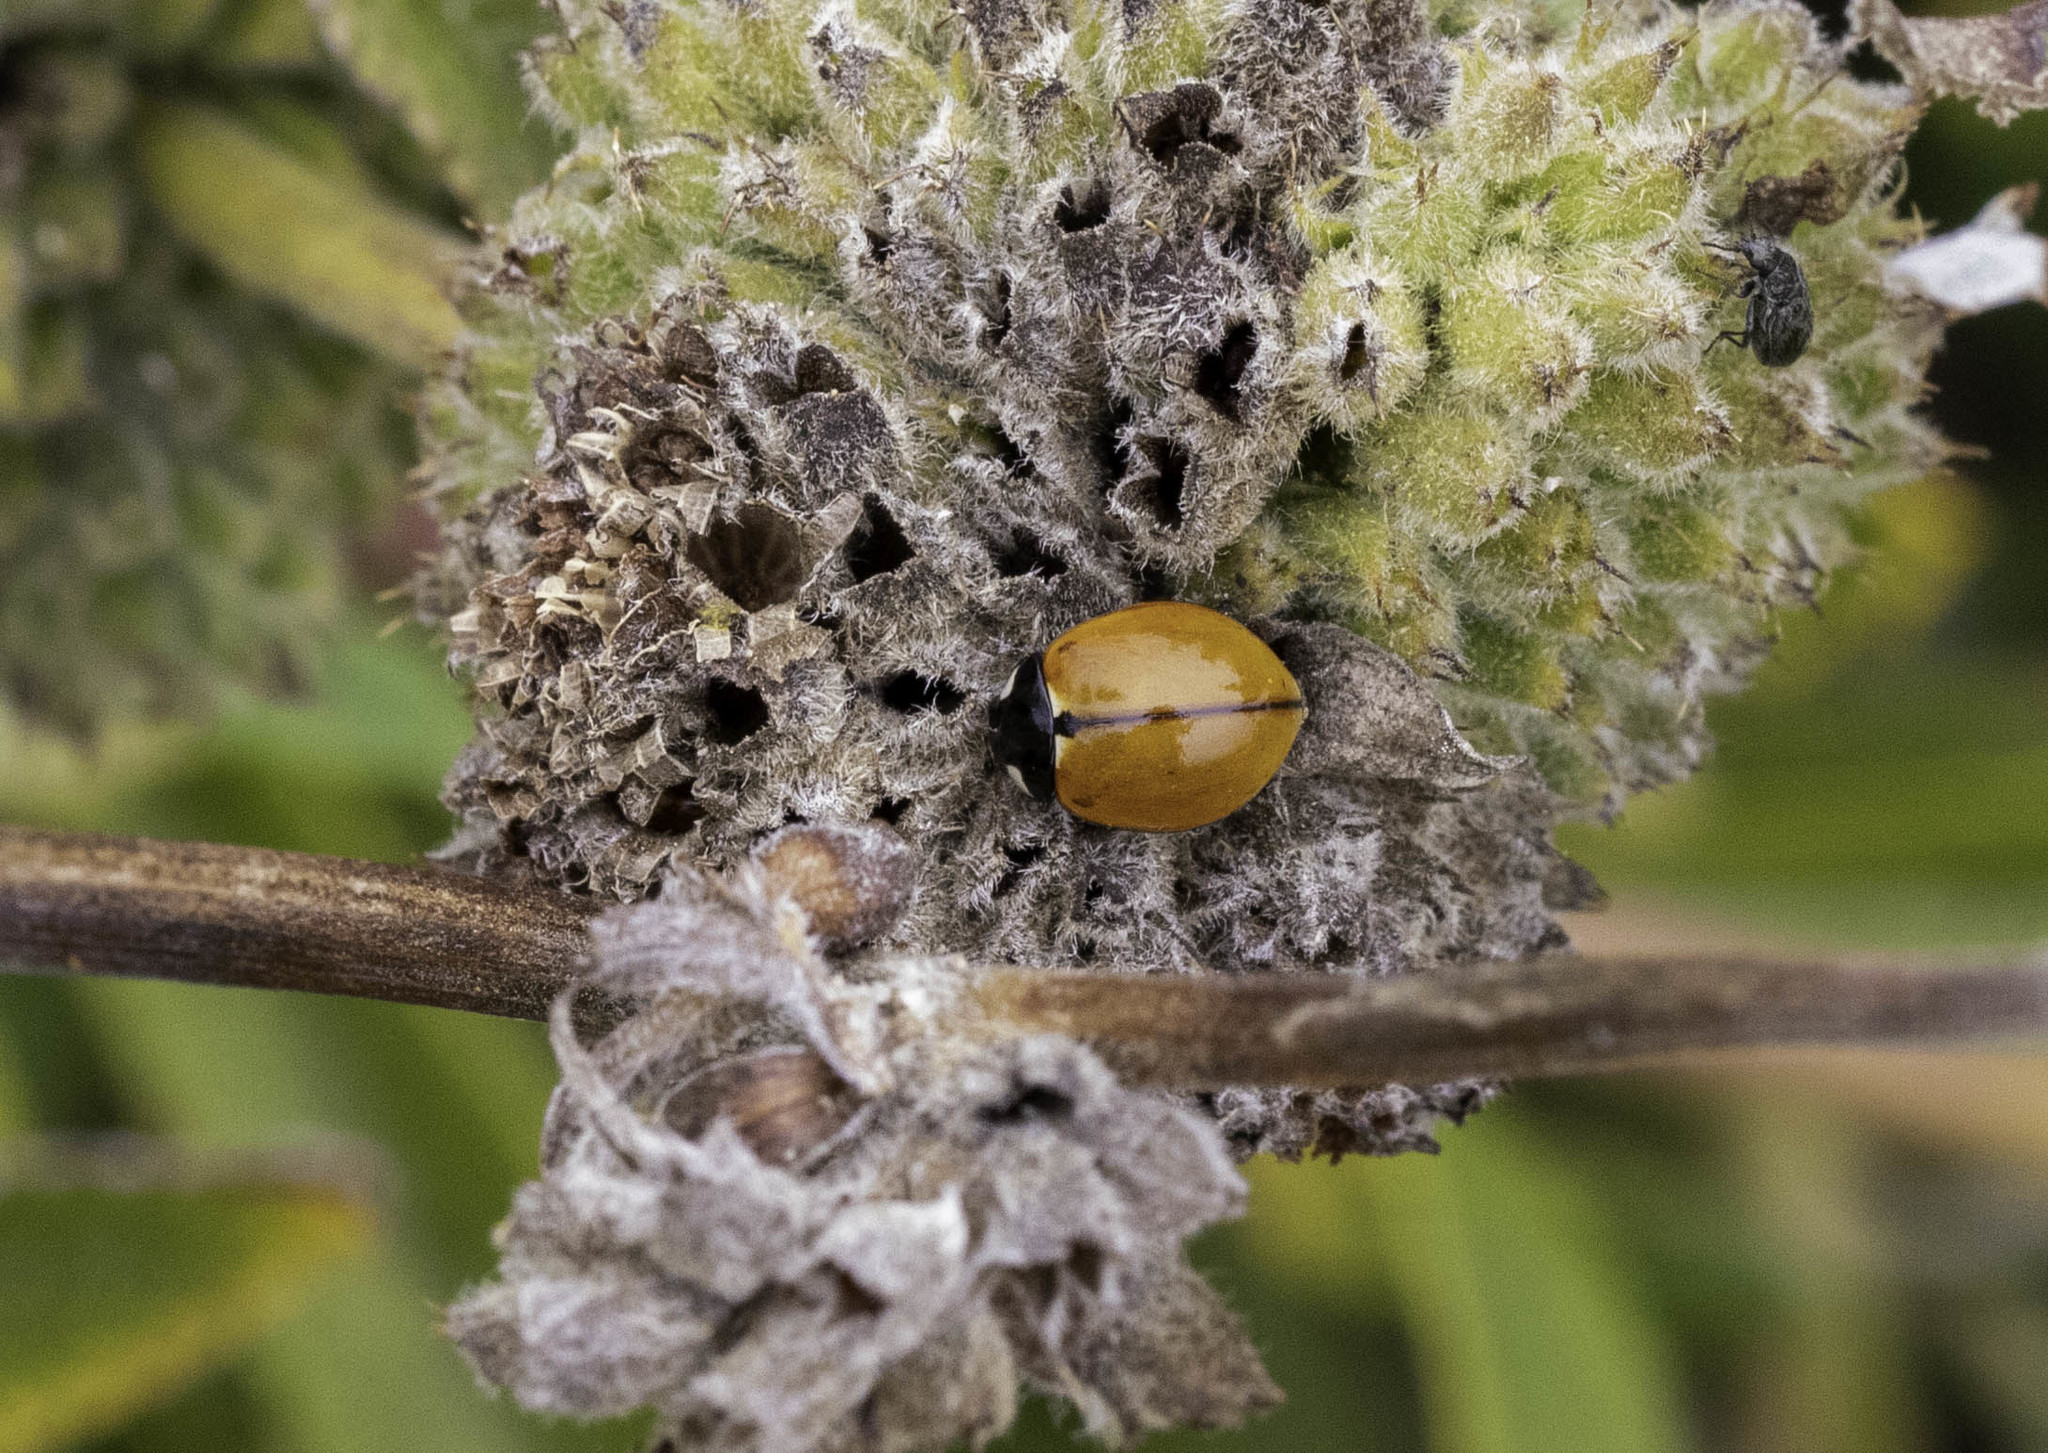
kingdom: Animalia
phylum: Arthropoda
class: Insecta
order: Coleoptera
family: Coccinellidae
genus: Coccinella
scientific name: Coccinella californica
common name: Lady beetle
